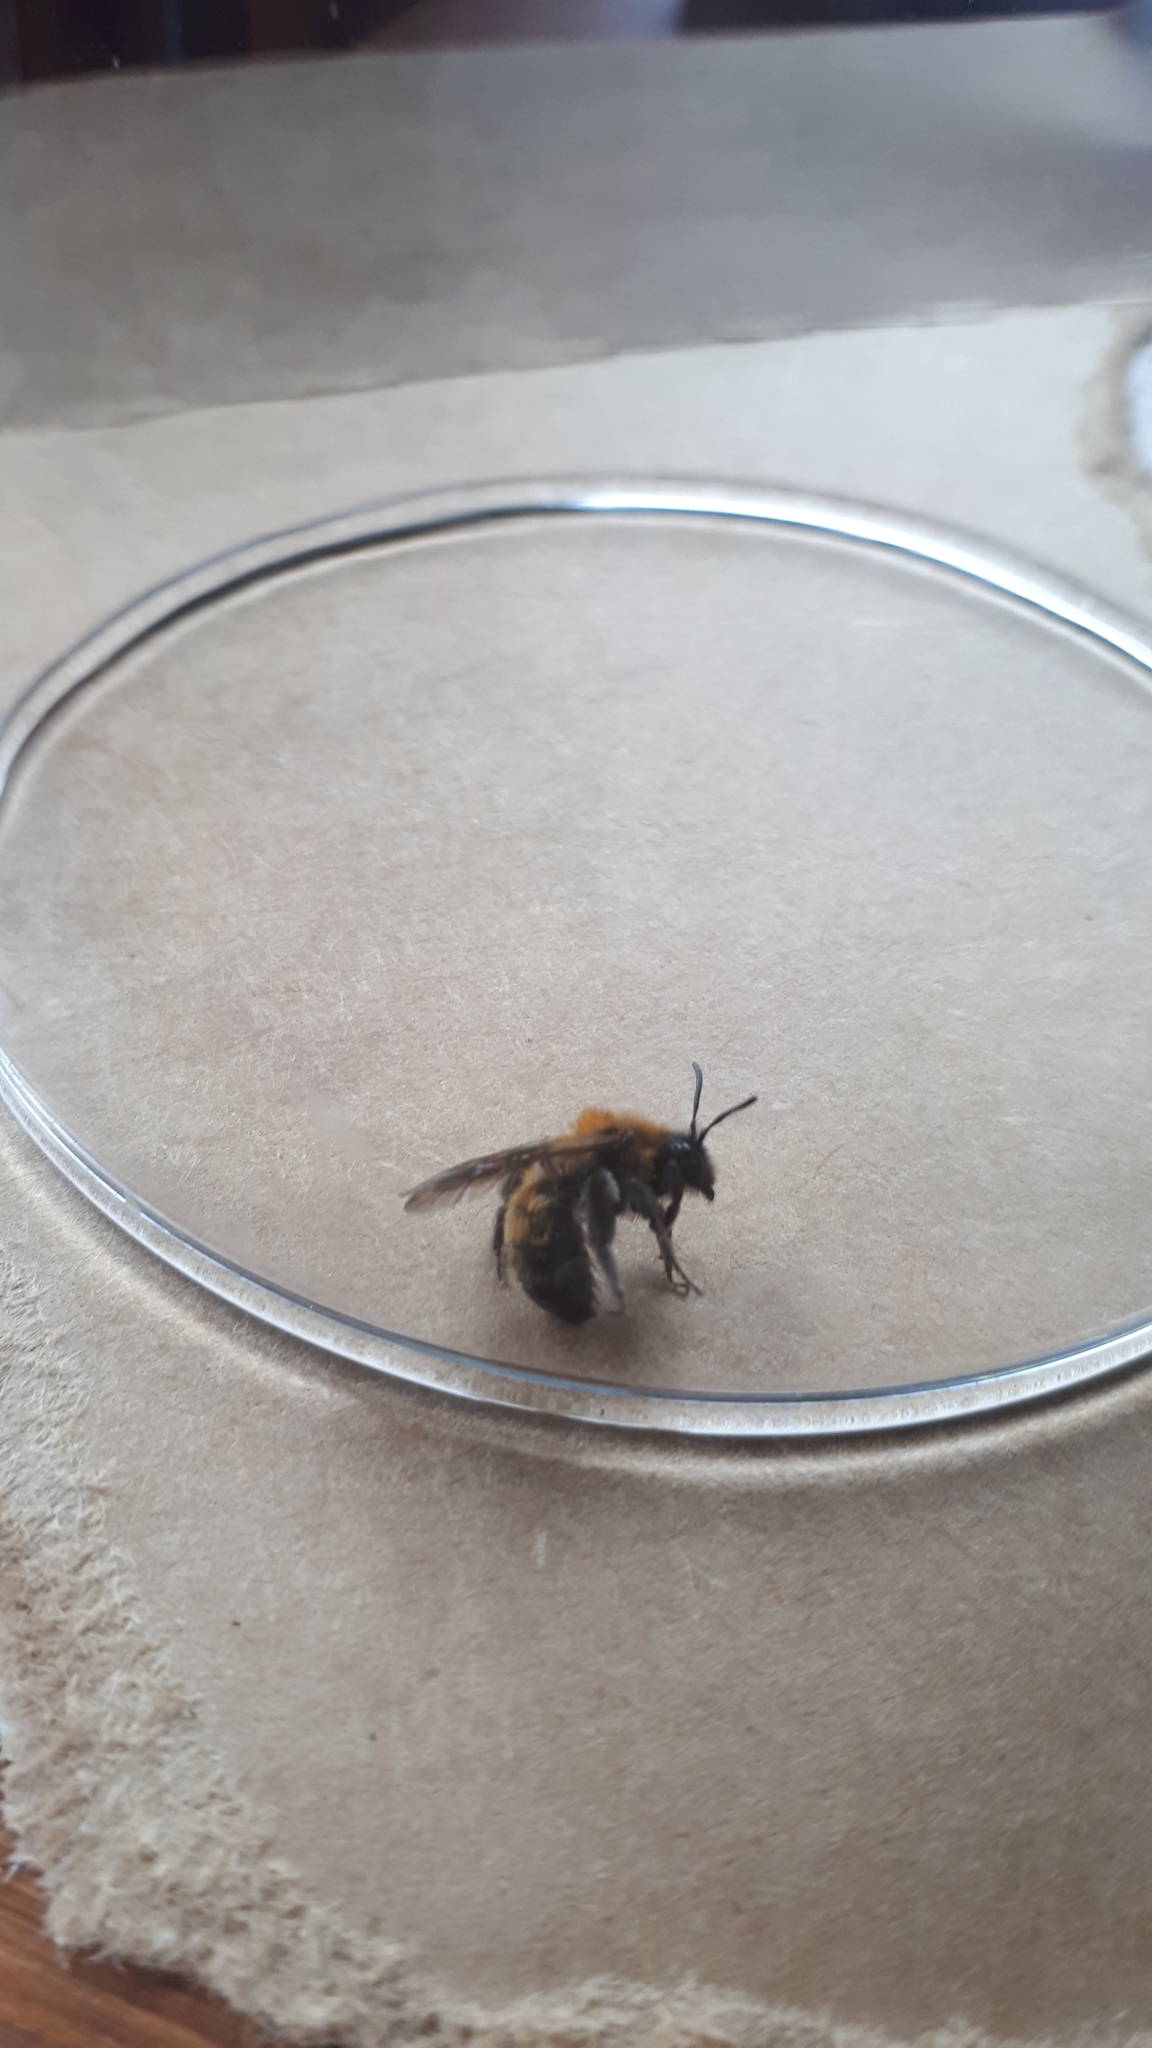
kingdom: Animalia
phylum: Arthropoda
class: Insecta
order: Hymenoptera
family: Andrenidae
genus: Andrena
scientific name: Andrena milwaukeensis
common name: Milwaukee mining bee
